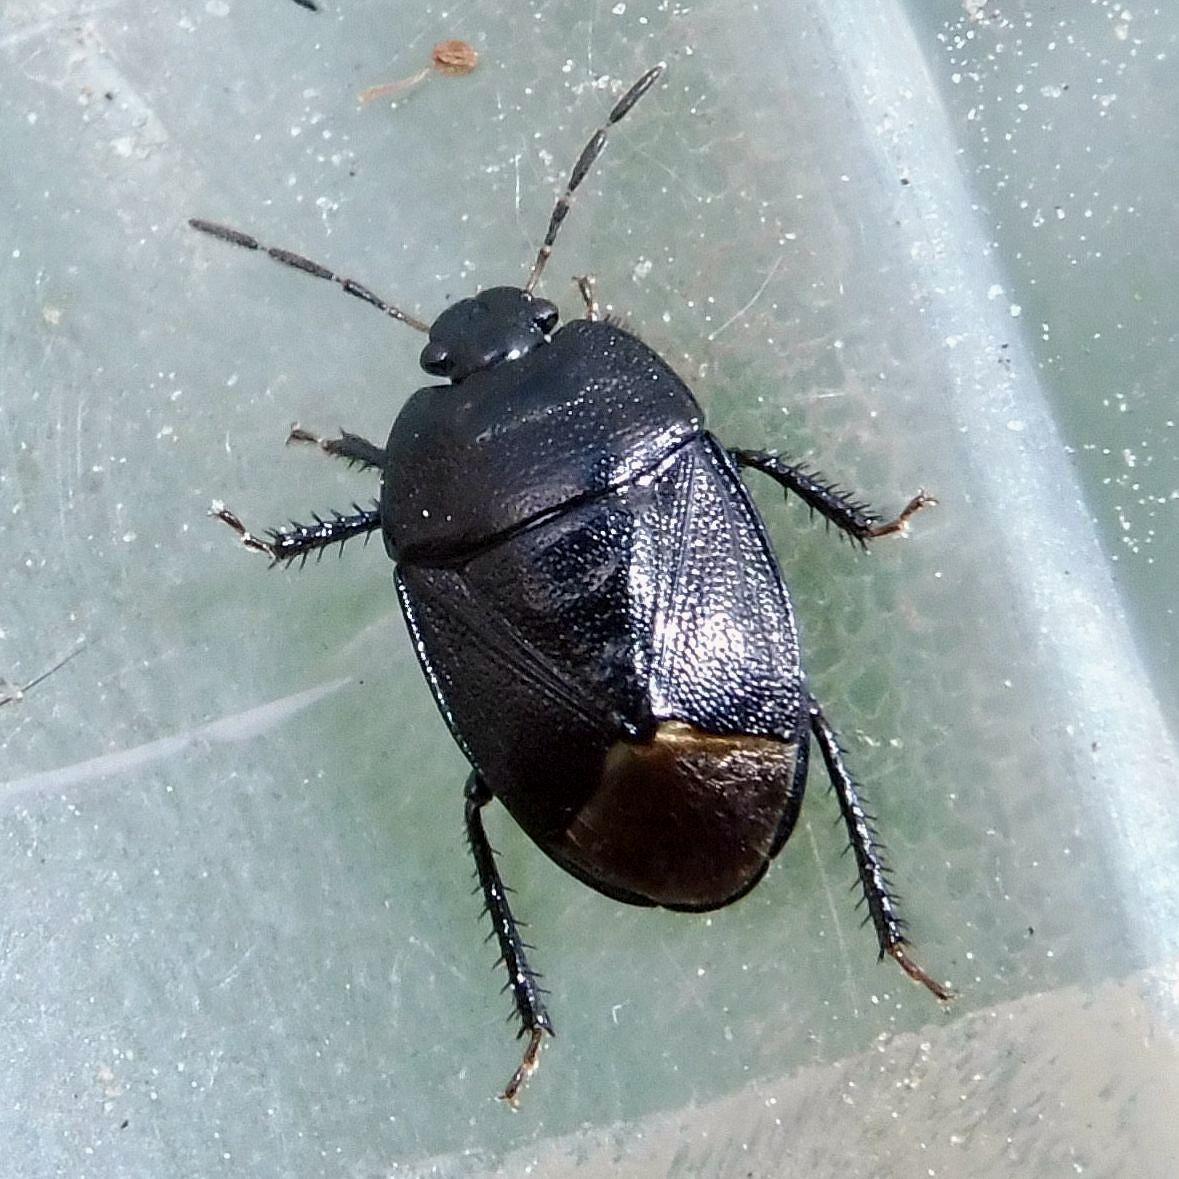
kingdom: Animalia
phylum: Arthropoda
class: Insecta
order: Hemiptera
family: Cydnidae
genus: Sehirus
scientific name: Sehirus luctuosus
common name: Forget-me-not shieldbug
